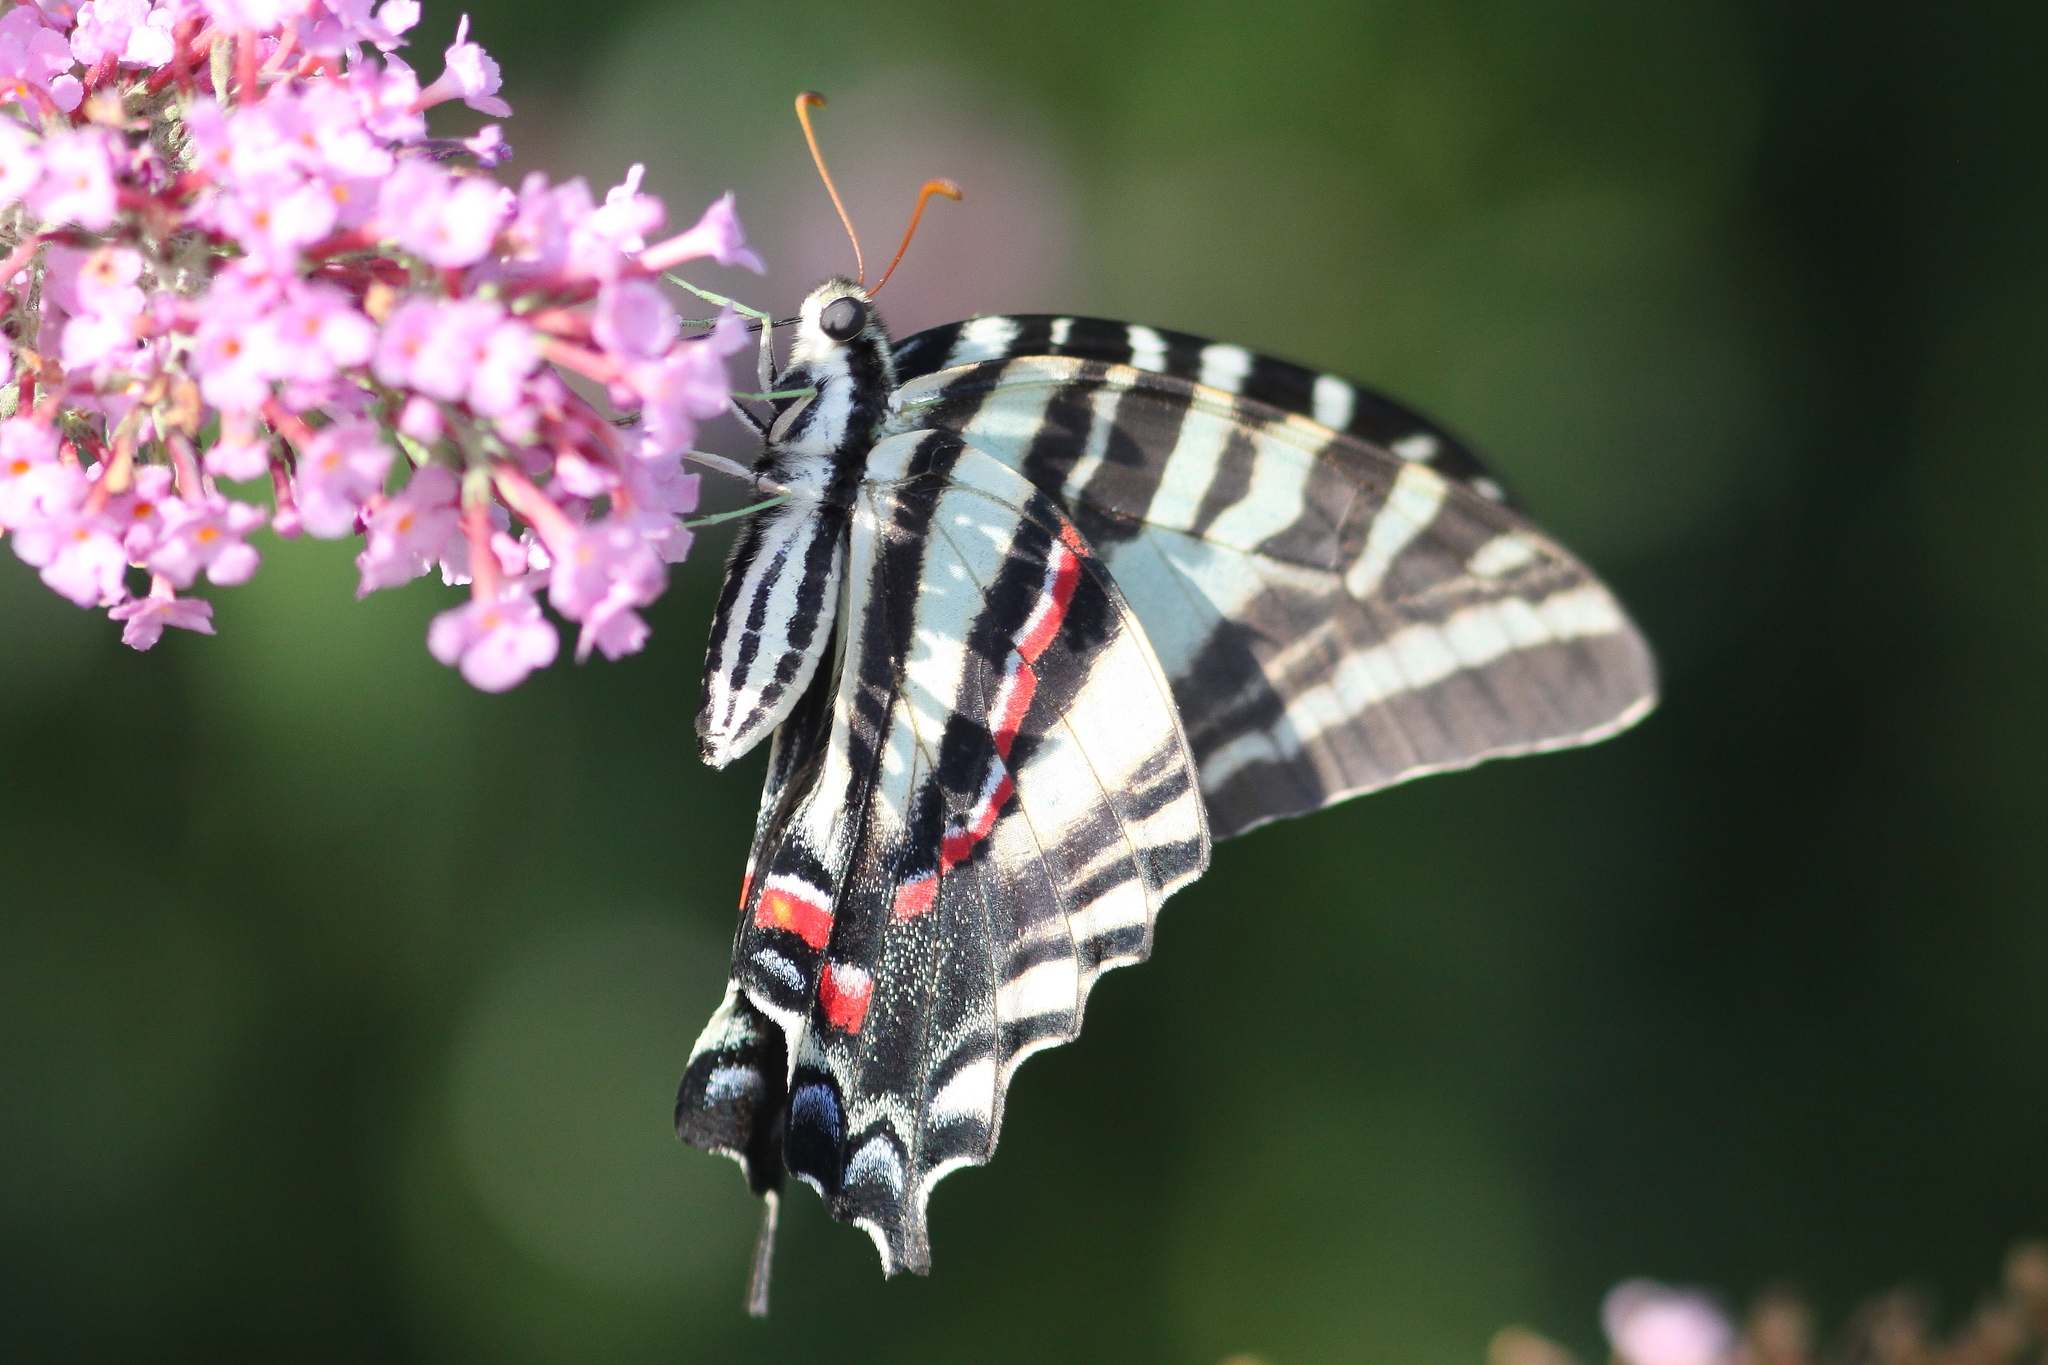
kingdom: Animalia
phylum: Arthropoda
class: Insecta
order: Lepidoptera
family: Papilionidae
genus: Protographium
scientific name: Protographium marcellus
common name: Zebra swallowtail
